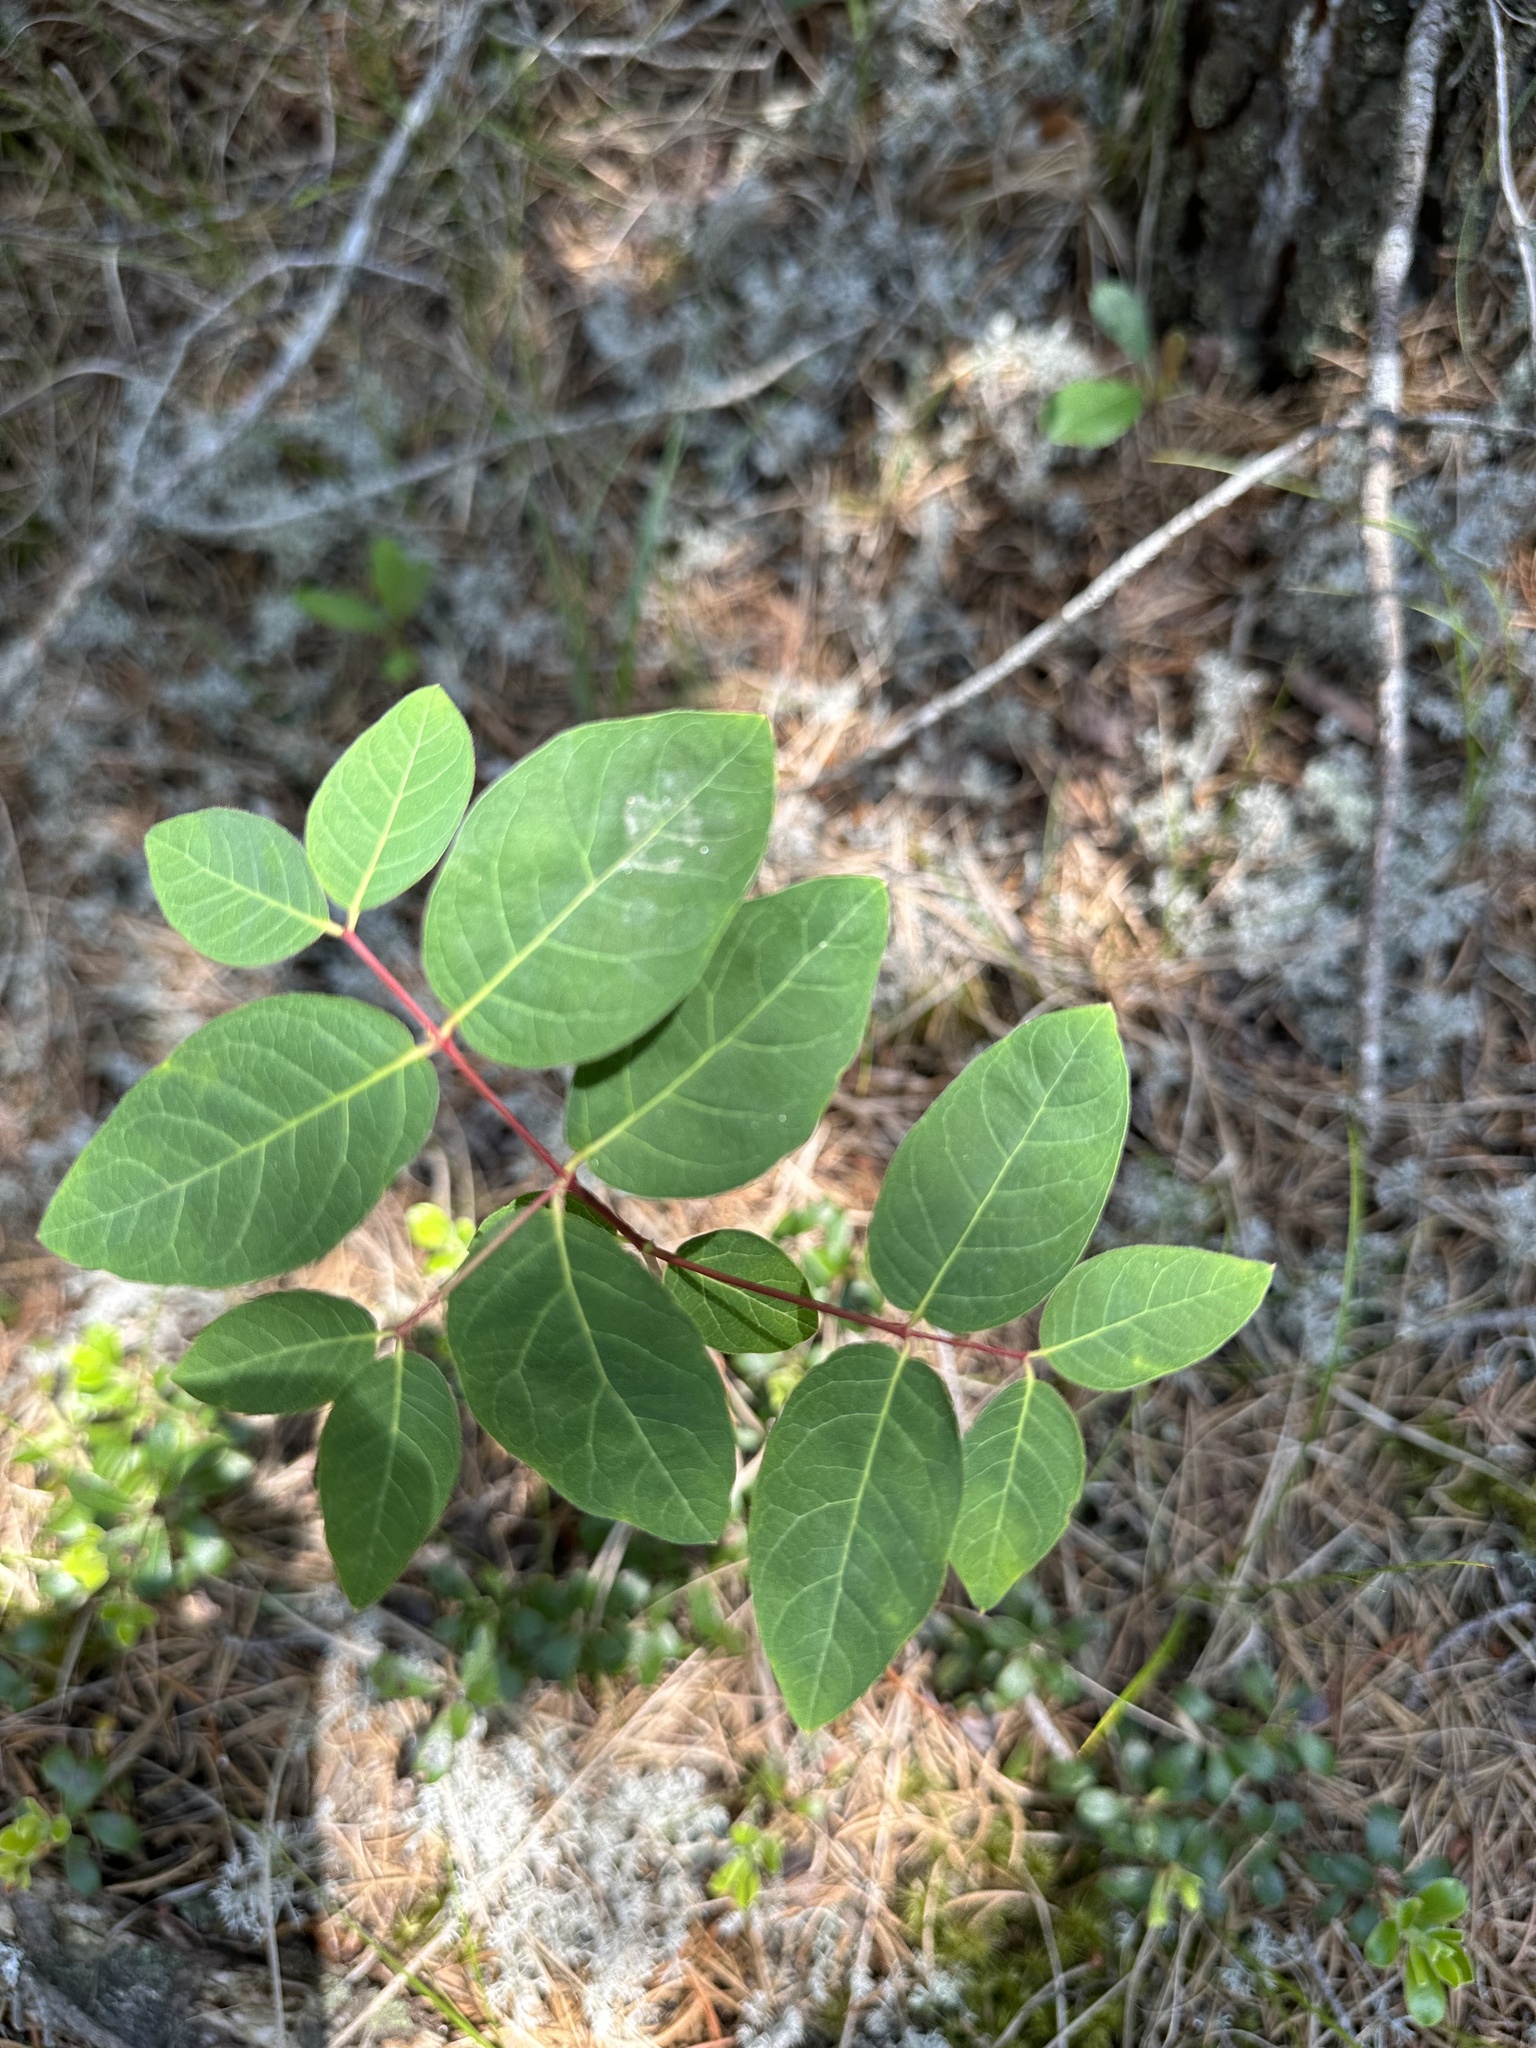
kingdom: Plantae
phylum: Tracheophyta
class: Magnoliopsida
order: Gentianales
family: Apocynaceae
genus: Apocynum
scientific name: Apocynum androsaemifolium
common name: Spreading dogbane
